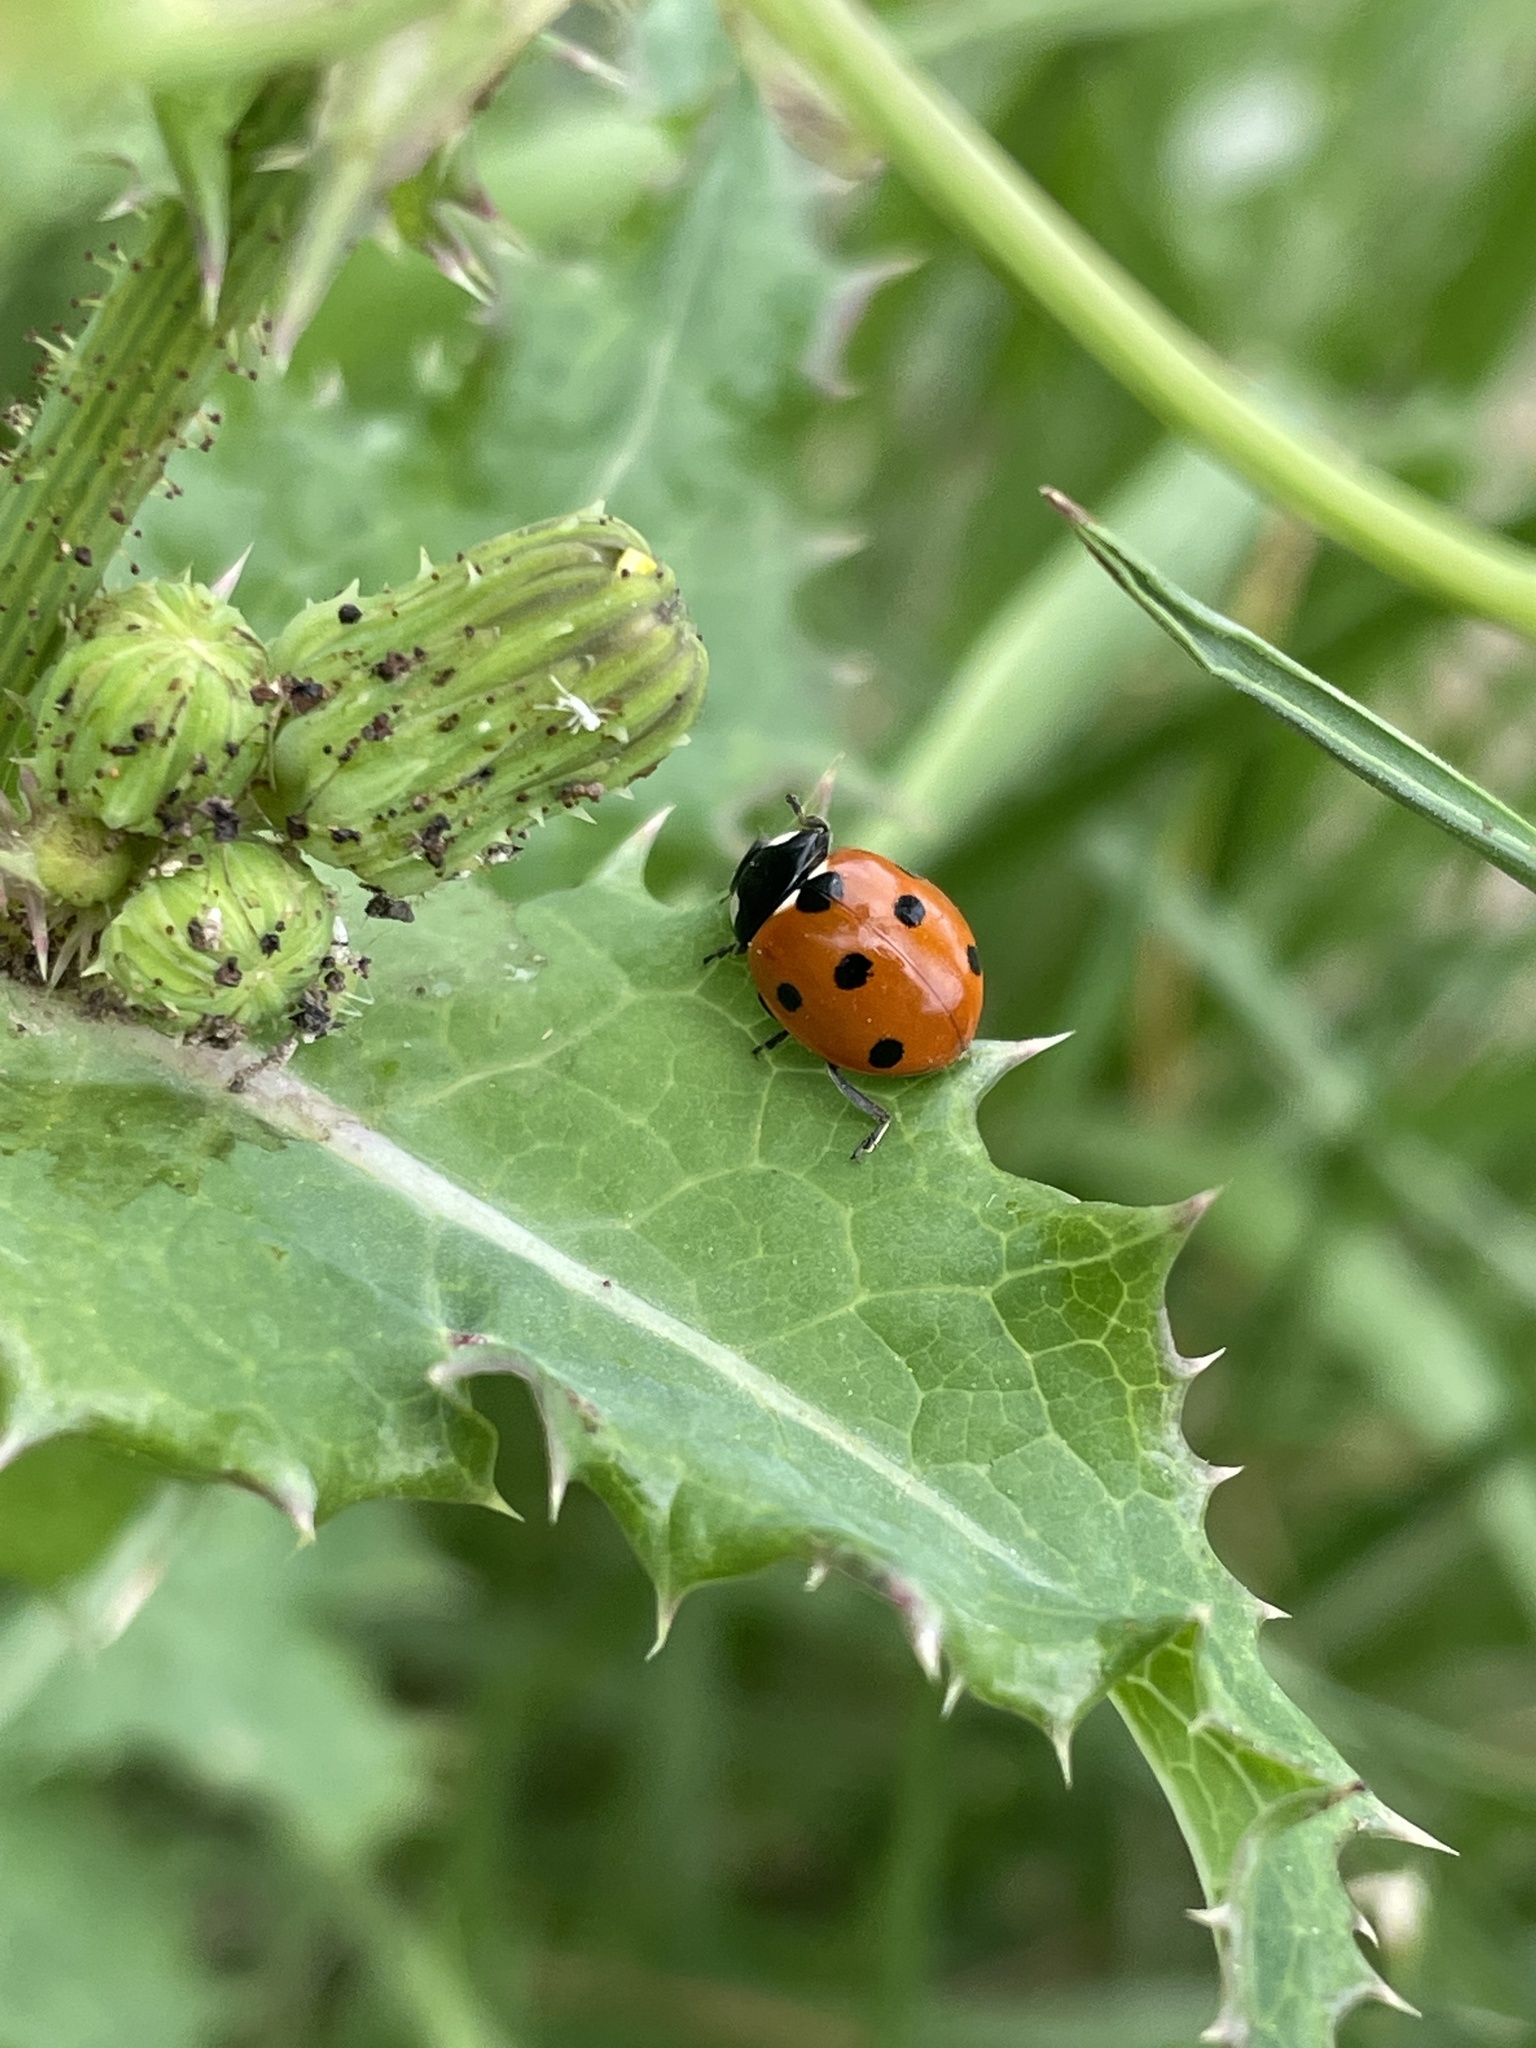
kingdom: Animalia
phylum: Arthropoda
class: Insecta
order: Coleoptera
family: Coccinellidae
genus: Coccinella
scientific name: Coccinella septempunctata
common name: Sevenspotted lady beetle
